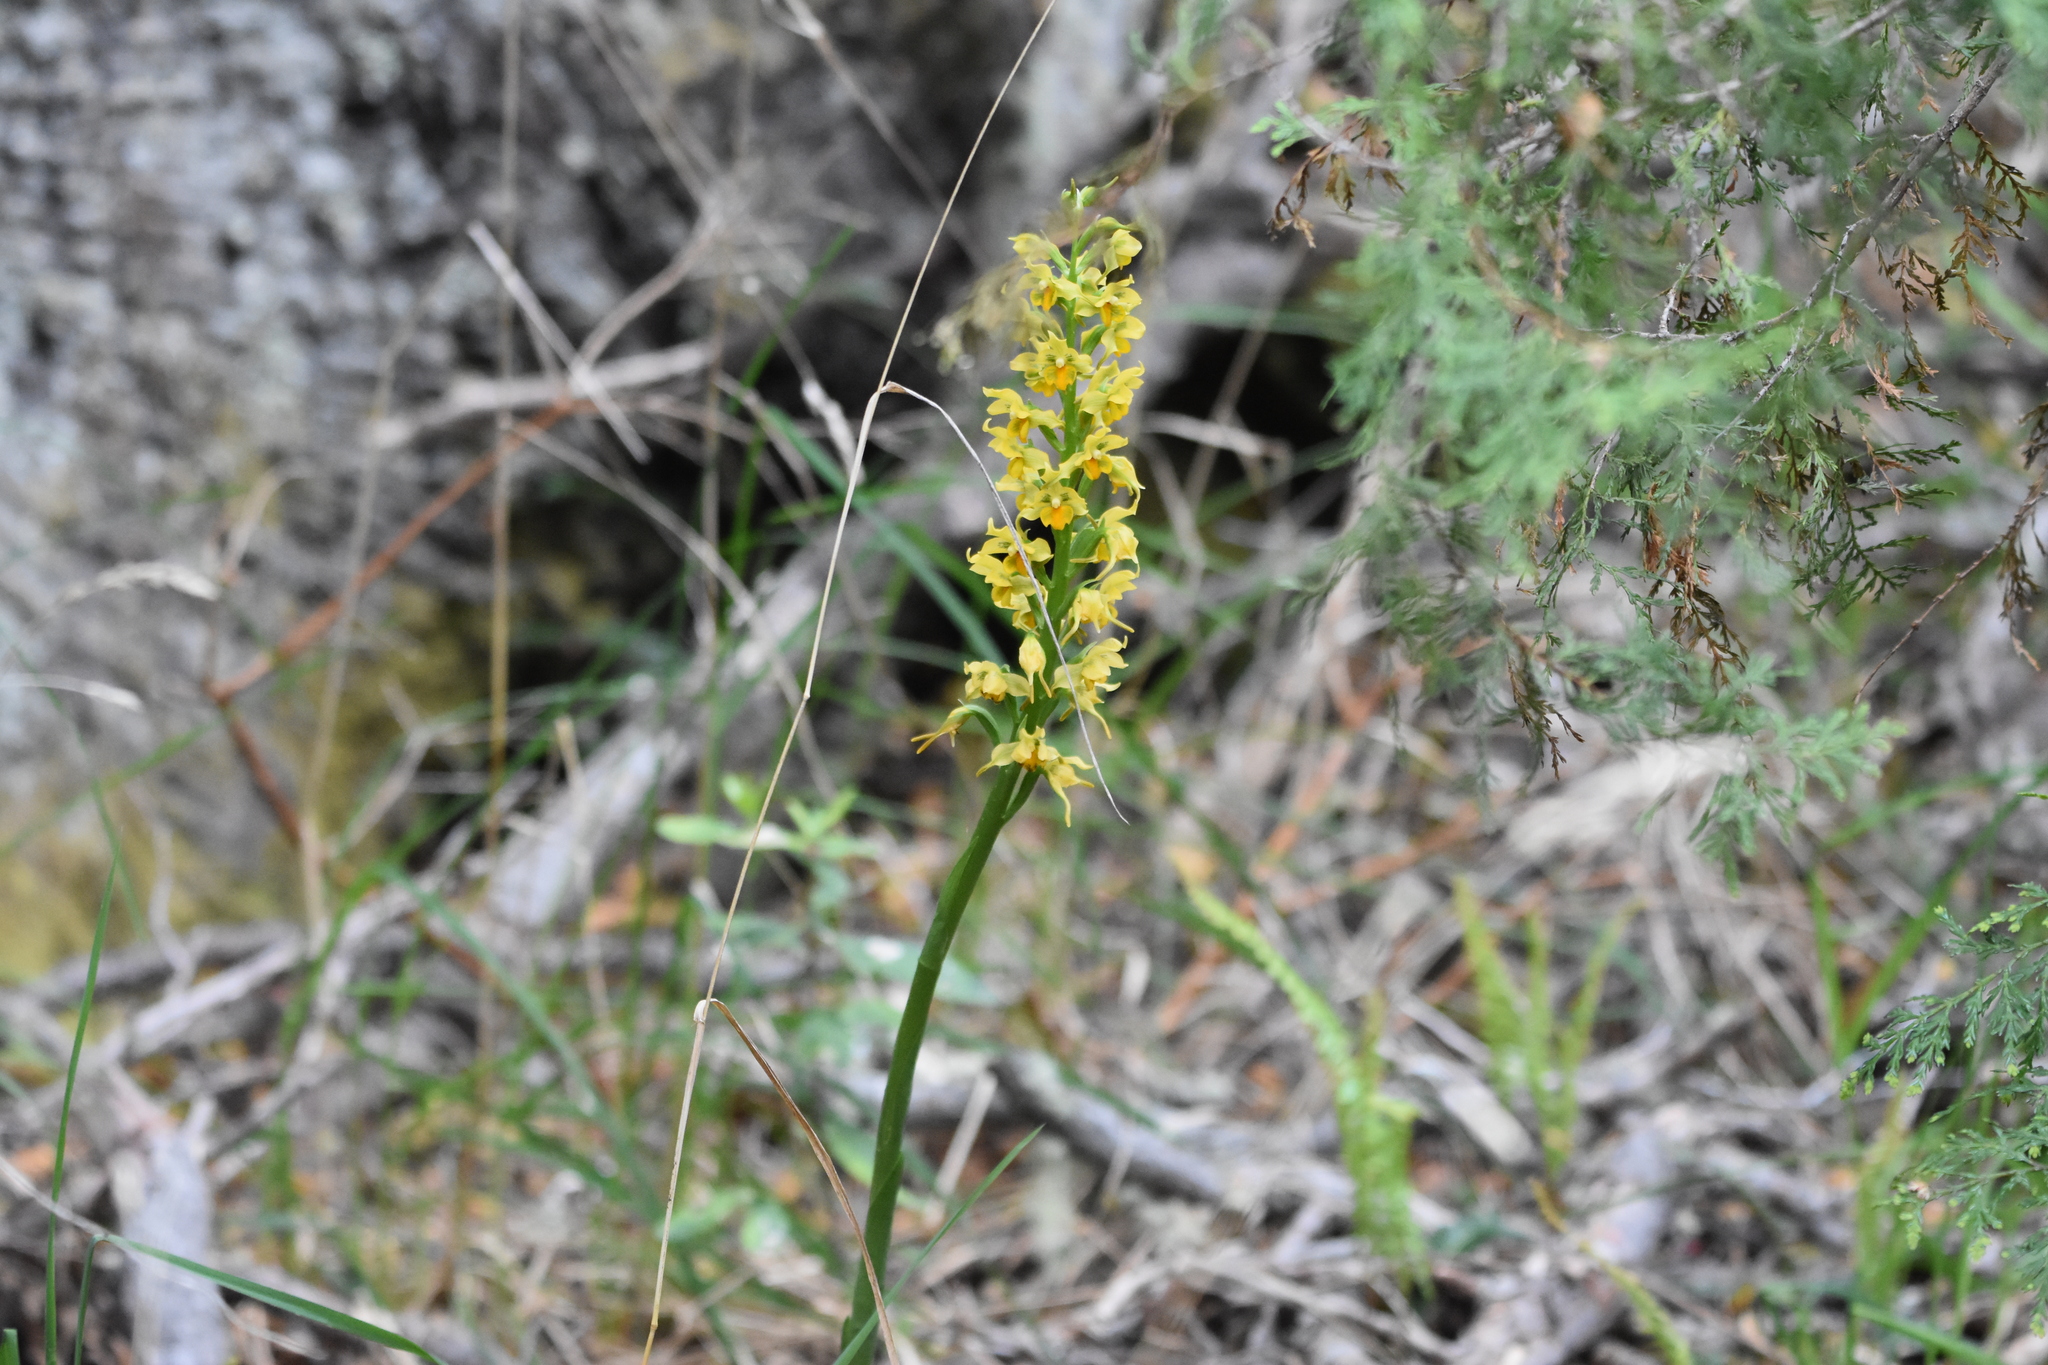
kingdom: Plantae
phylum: Tracheophyta
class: Liliopsida
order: Asparagales
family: Orchidaceae
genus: Gavilea
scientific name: Gavilea odoratissima
